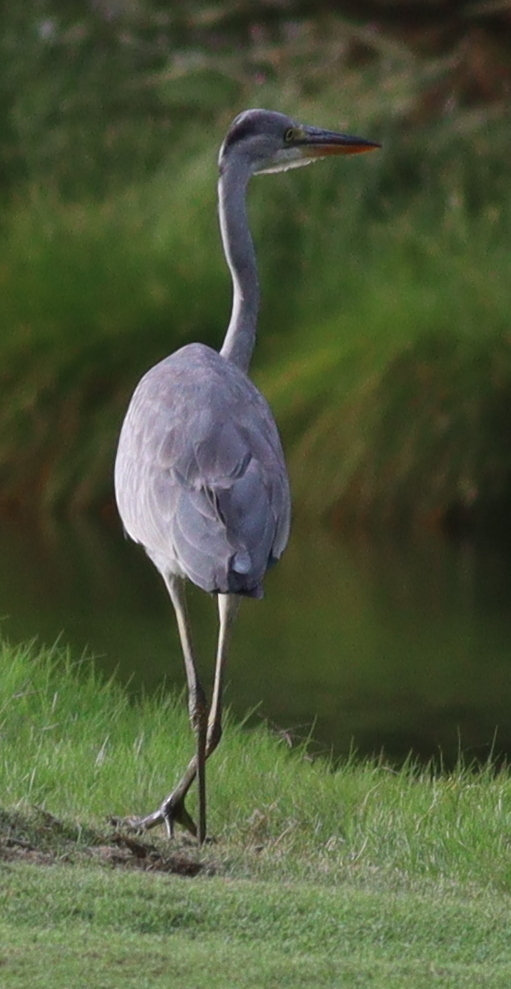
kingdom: Animalia
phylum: Chordata
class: Aves
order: Pelecaniformes
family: Ardeidae
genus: Ardea
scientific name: Ardea cinerea
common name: Grey heron
